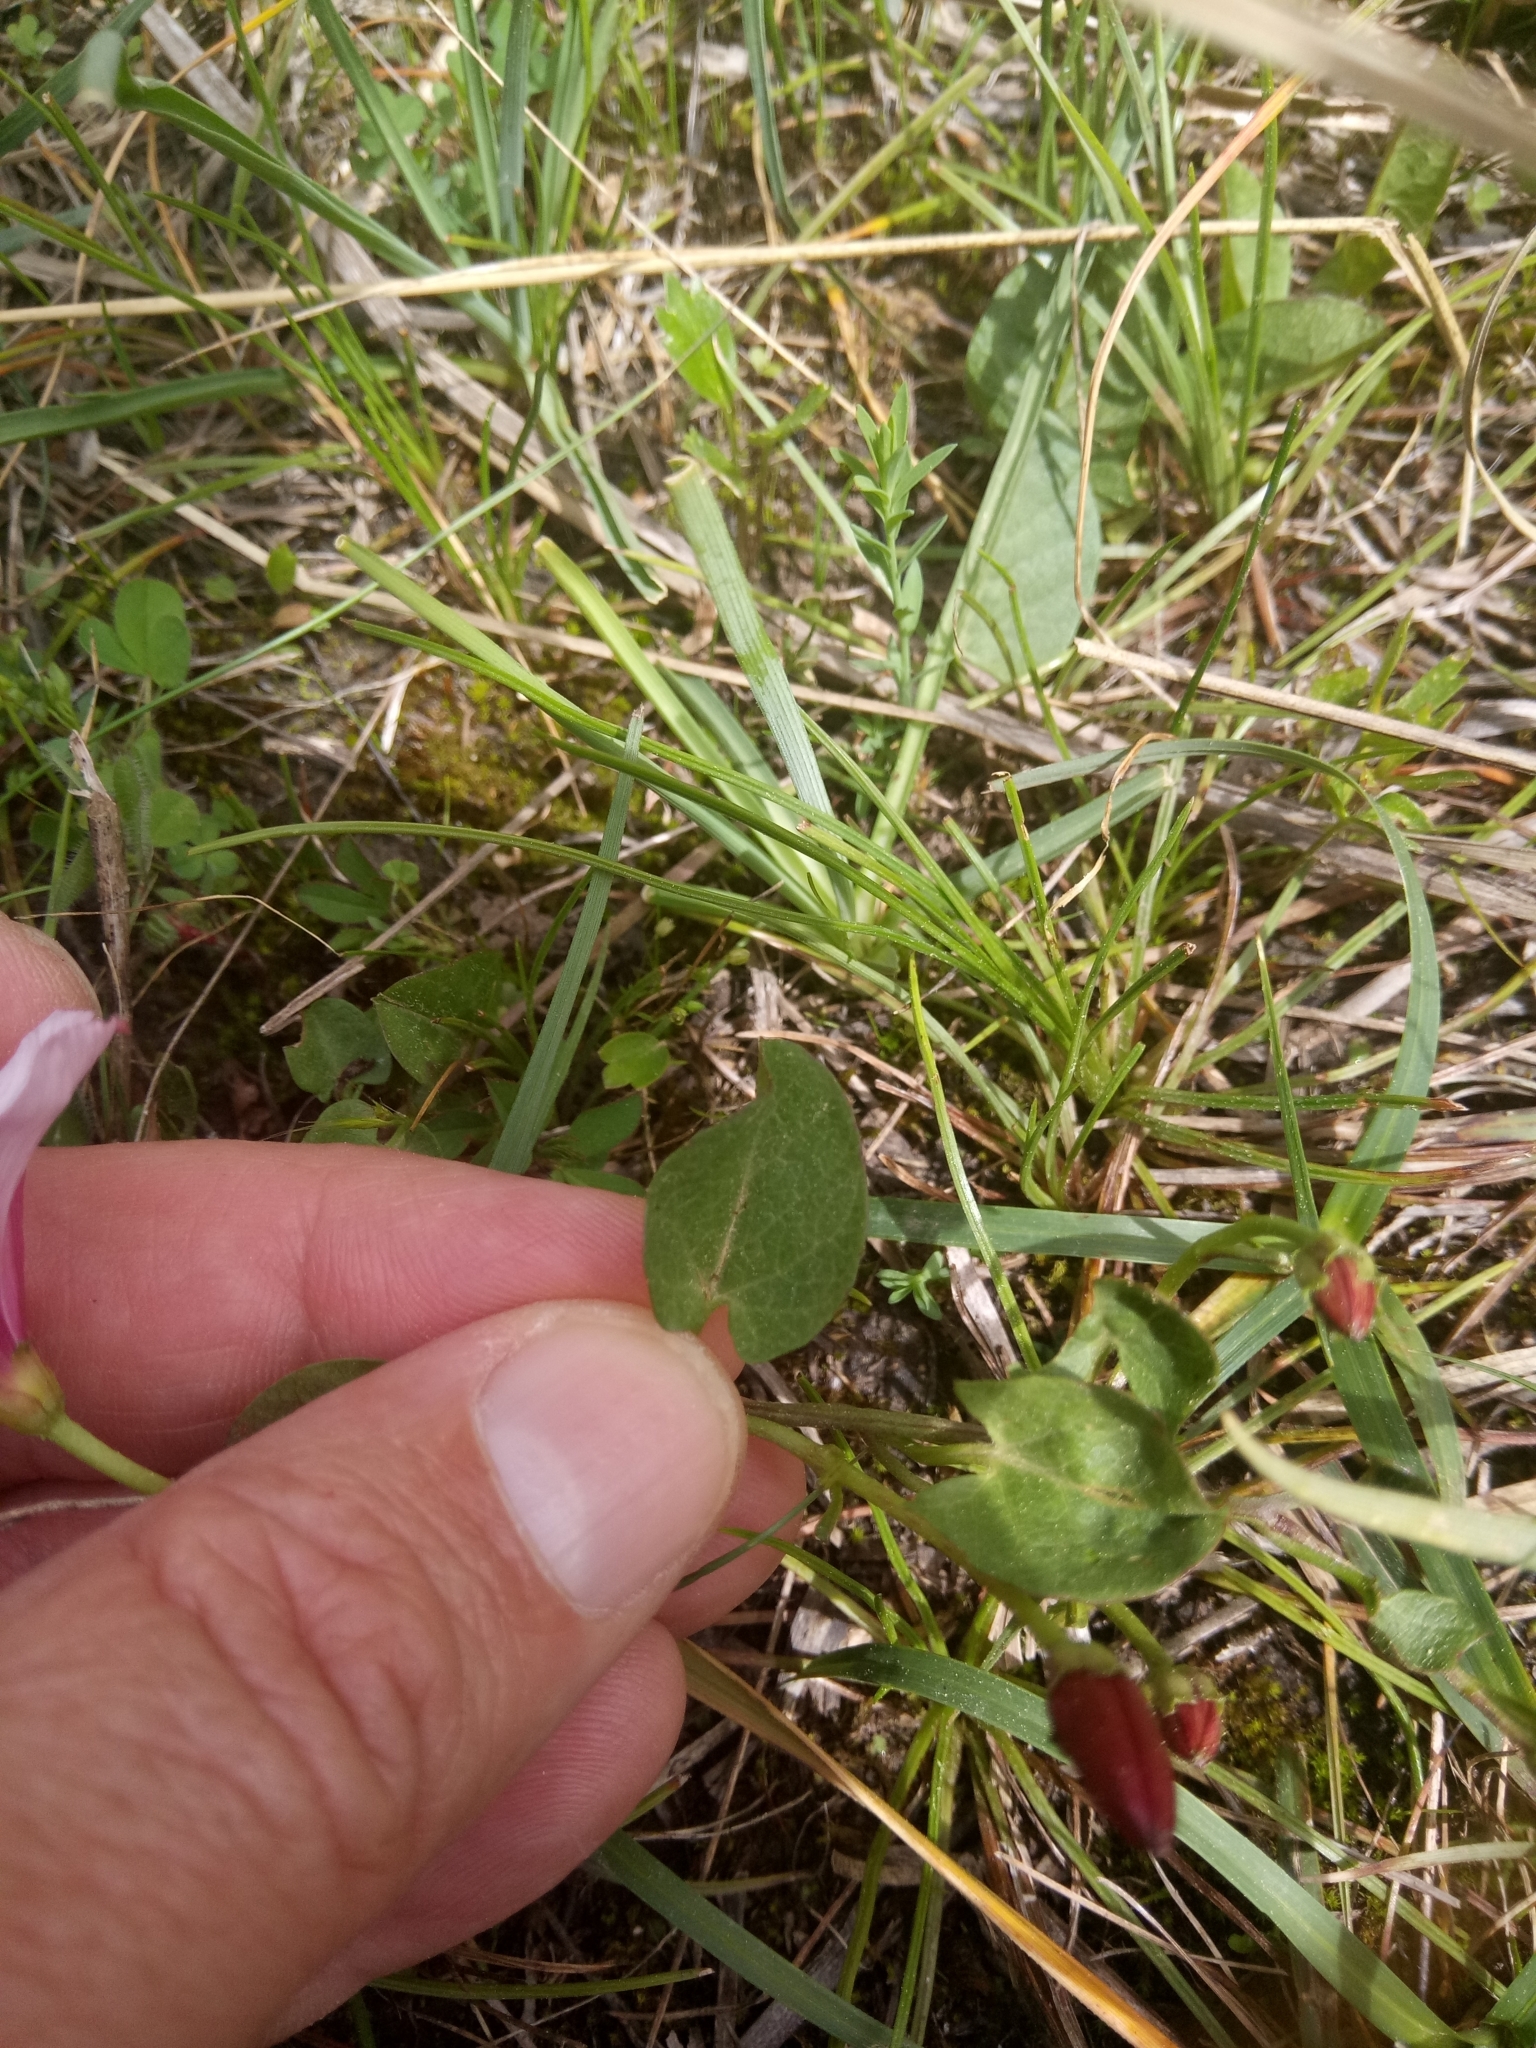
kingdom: Plantae
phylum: Tracheophyta
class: Magnoliopsida
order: Solanales
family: Convolvulaceae
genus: Convolvulus
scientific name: Convolvulus durandoi
